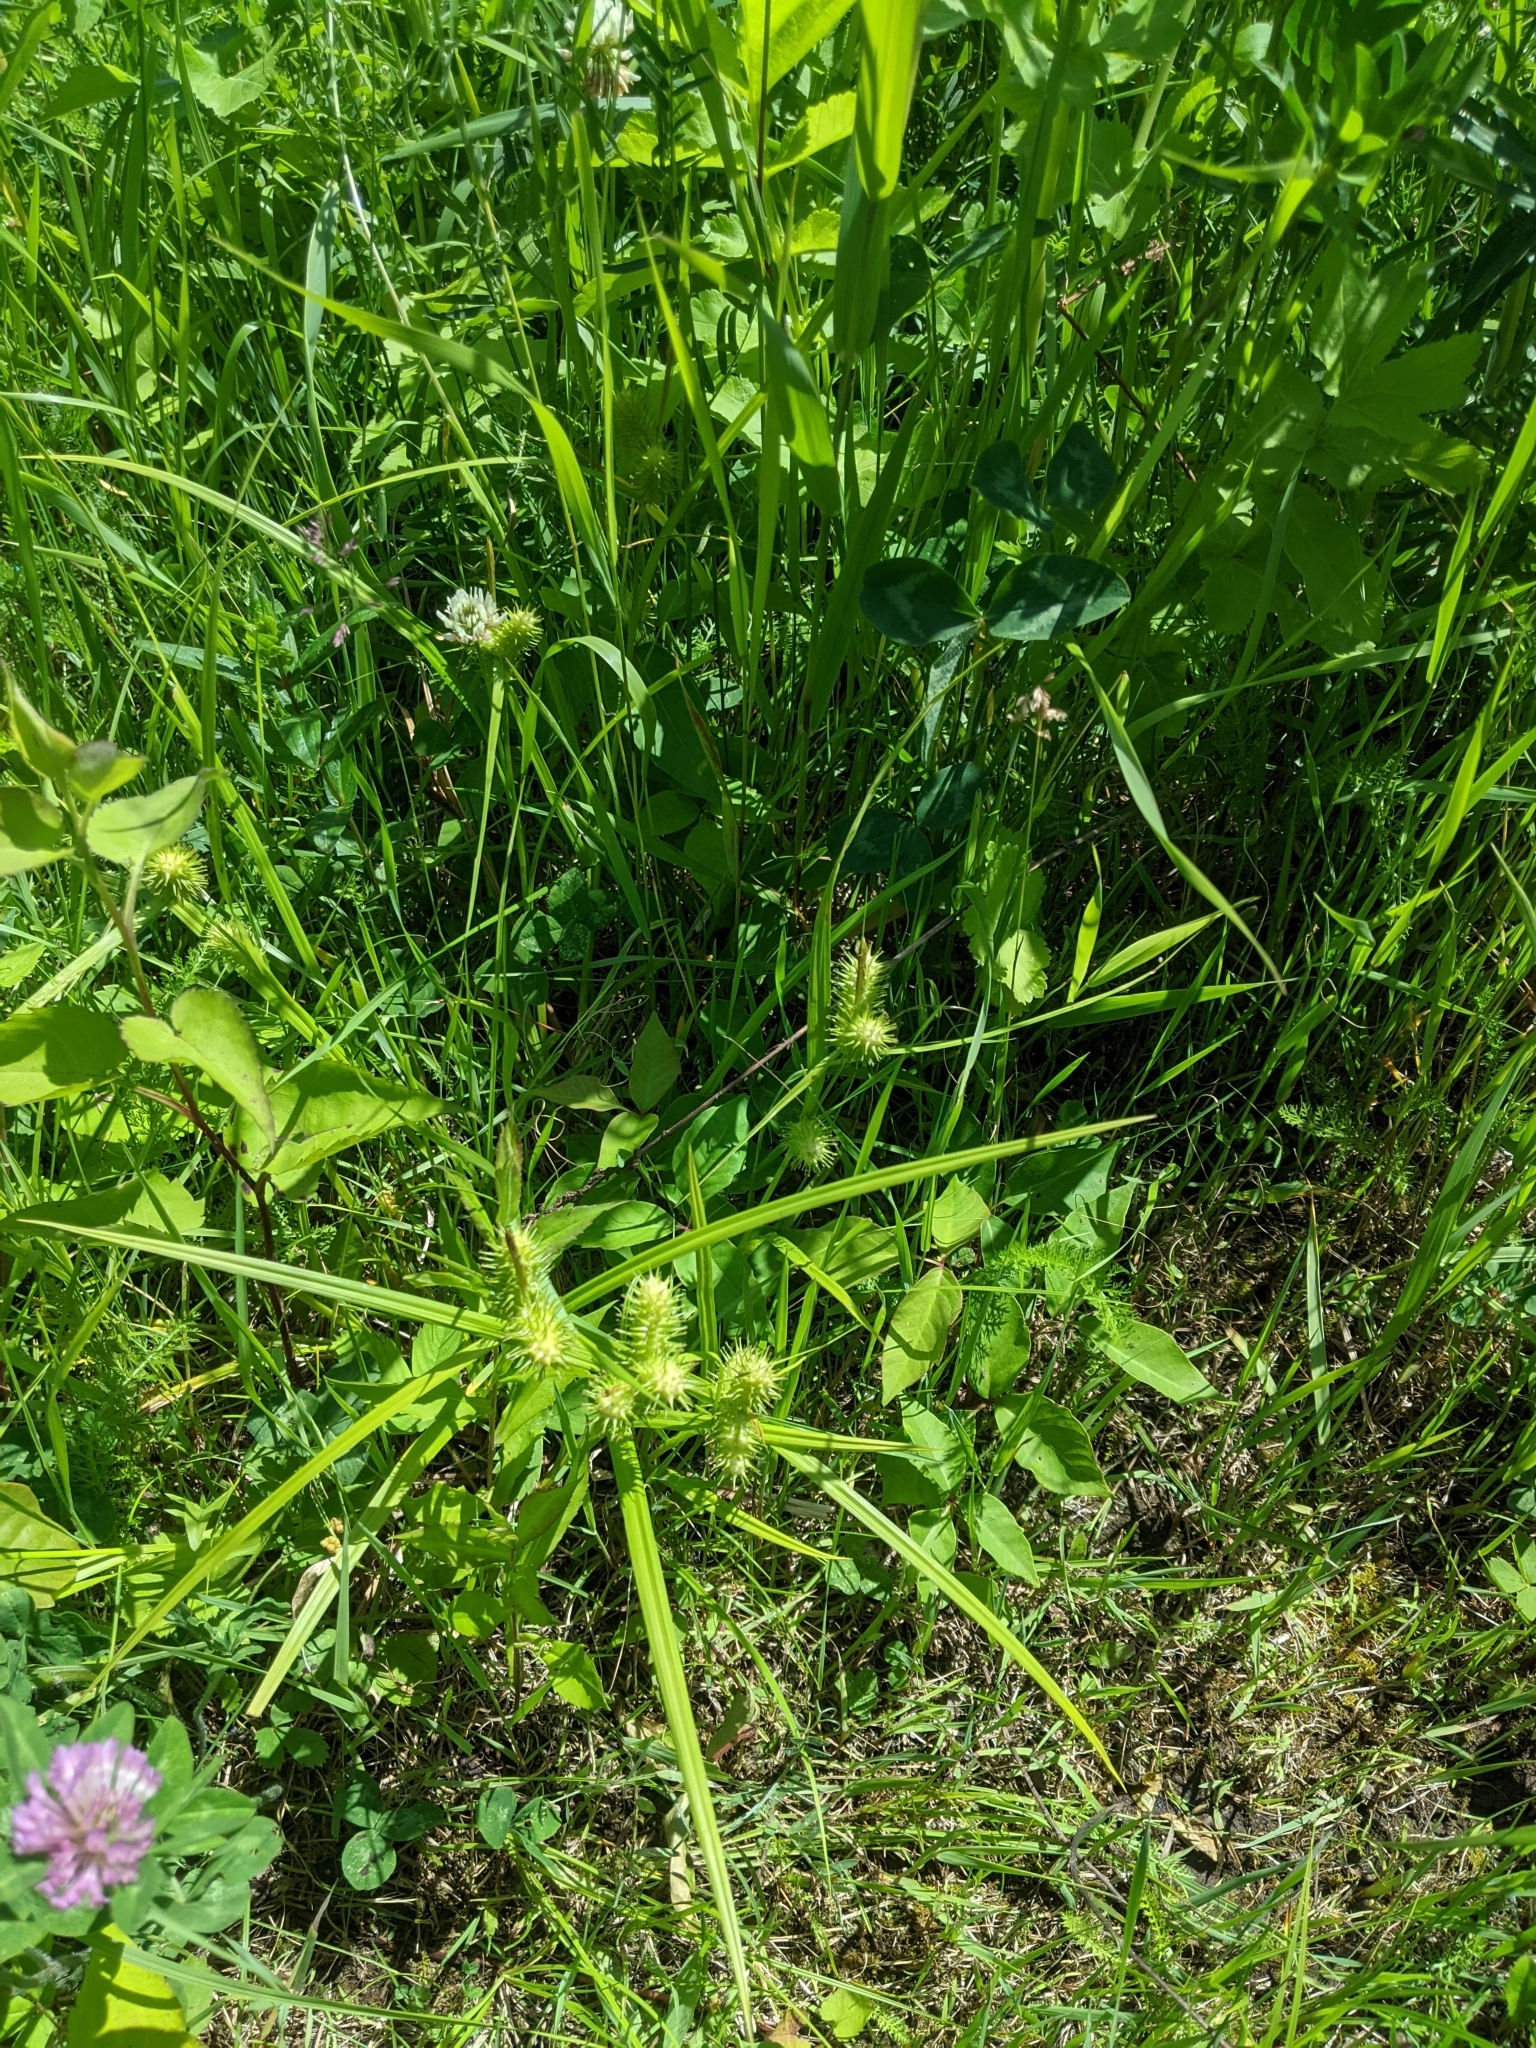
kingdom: Plantae
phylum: Tracheophyta
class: Liliopsida
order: Poales
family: Cyperaceae
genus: Carex
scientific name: Carex lurida
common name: Sallow sedge
